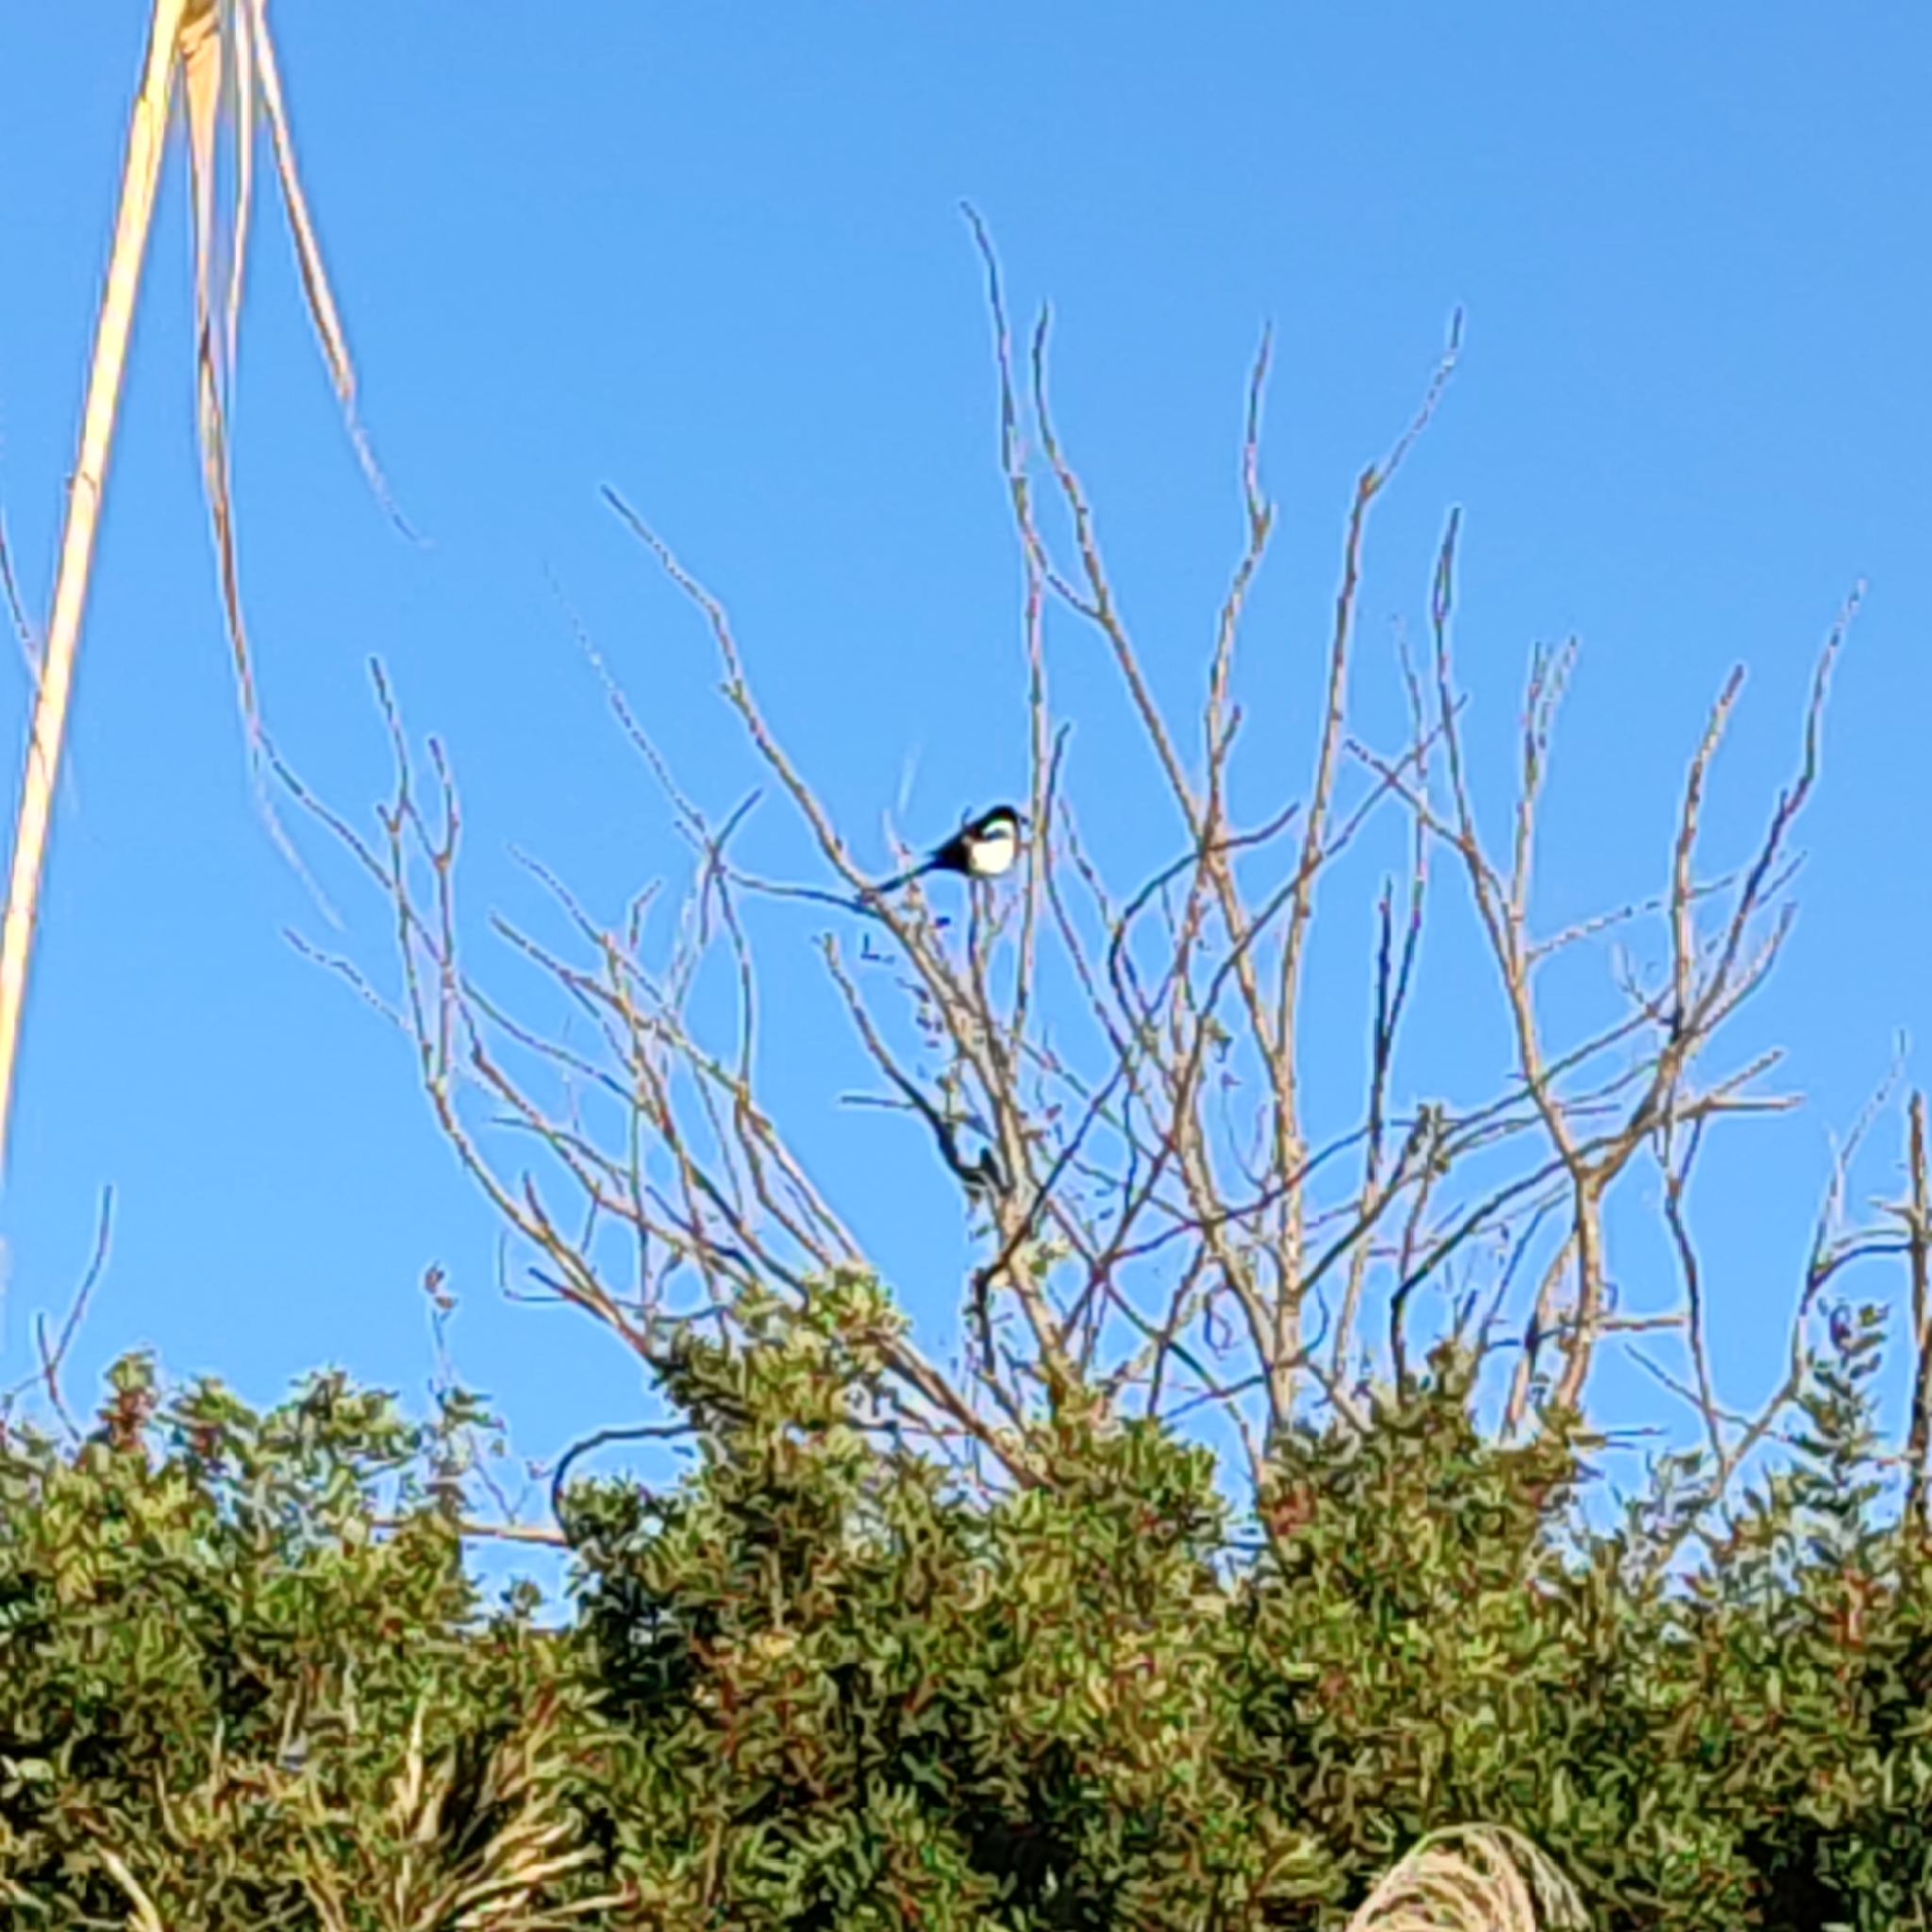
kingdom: Animalia
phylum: Chordata
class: Aves
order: Passeriformes
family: Corvidae
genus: Pica
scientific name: Pica pica
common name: Eurasian magpie
